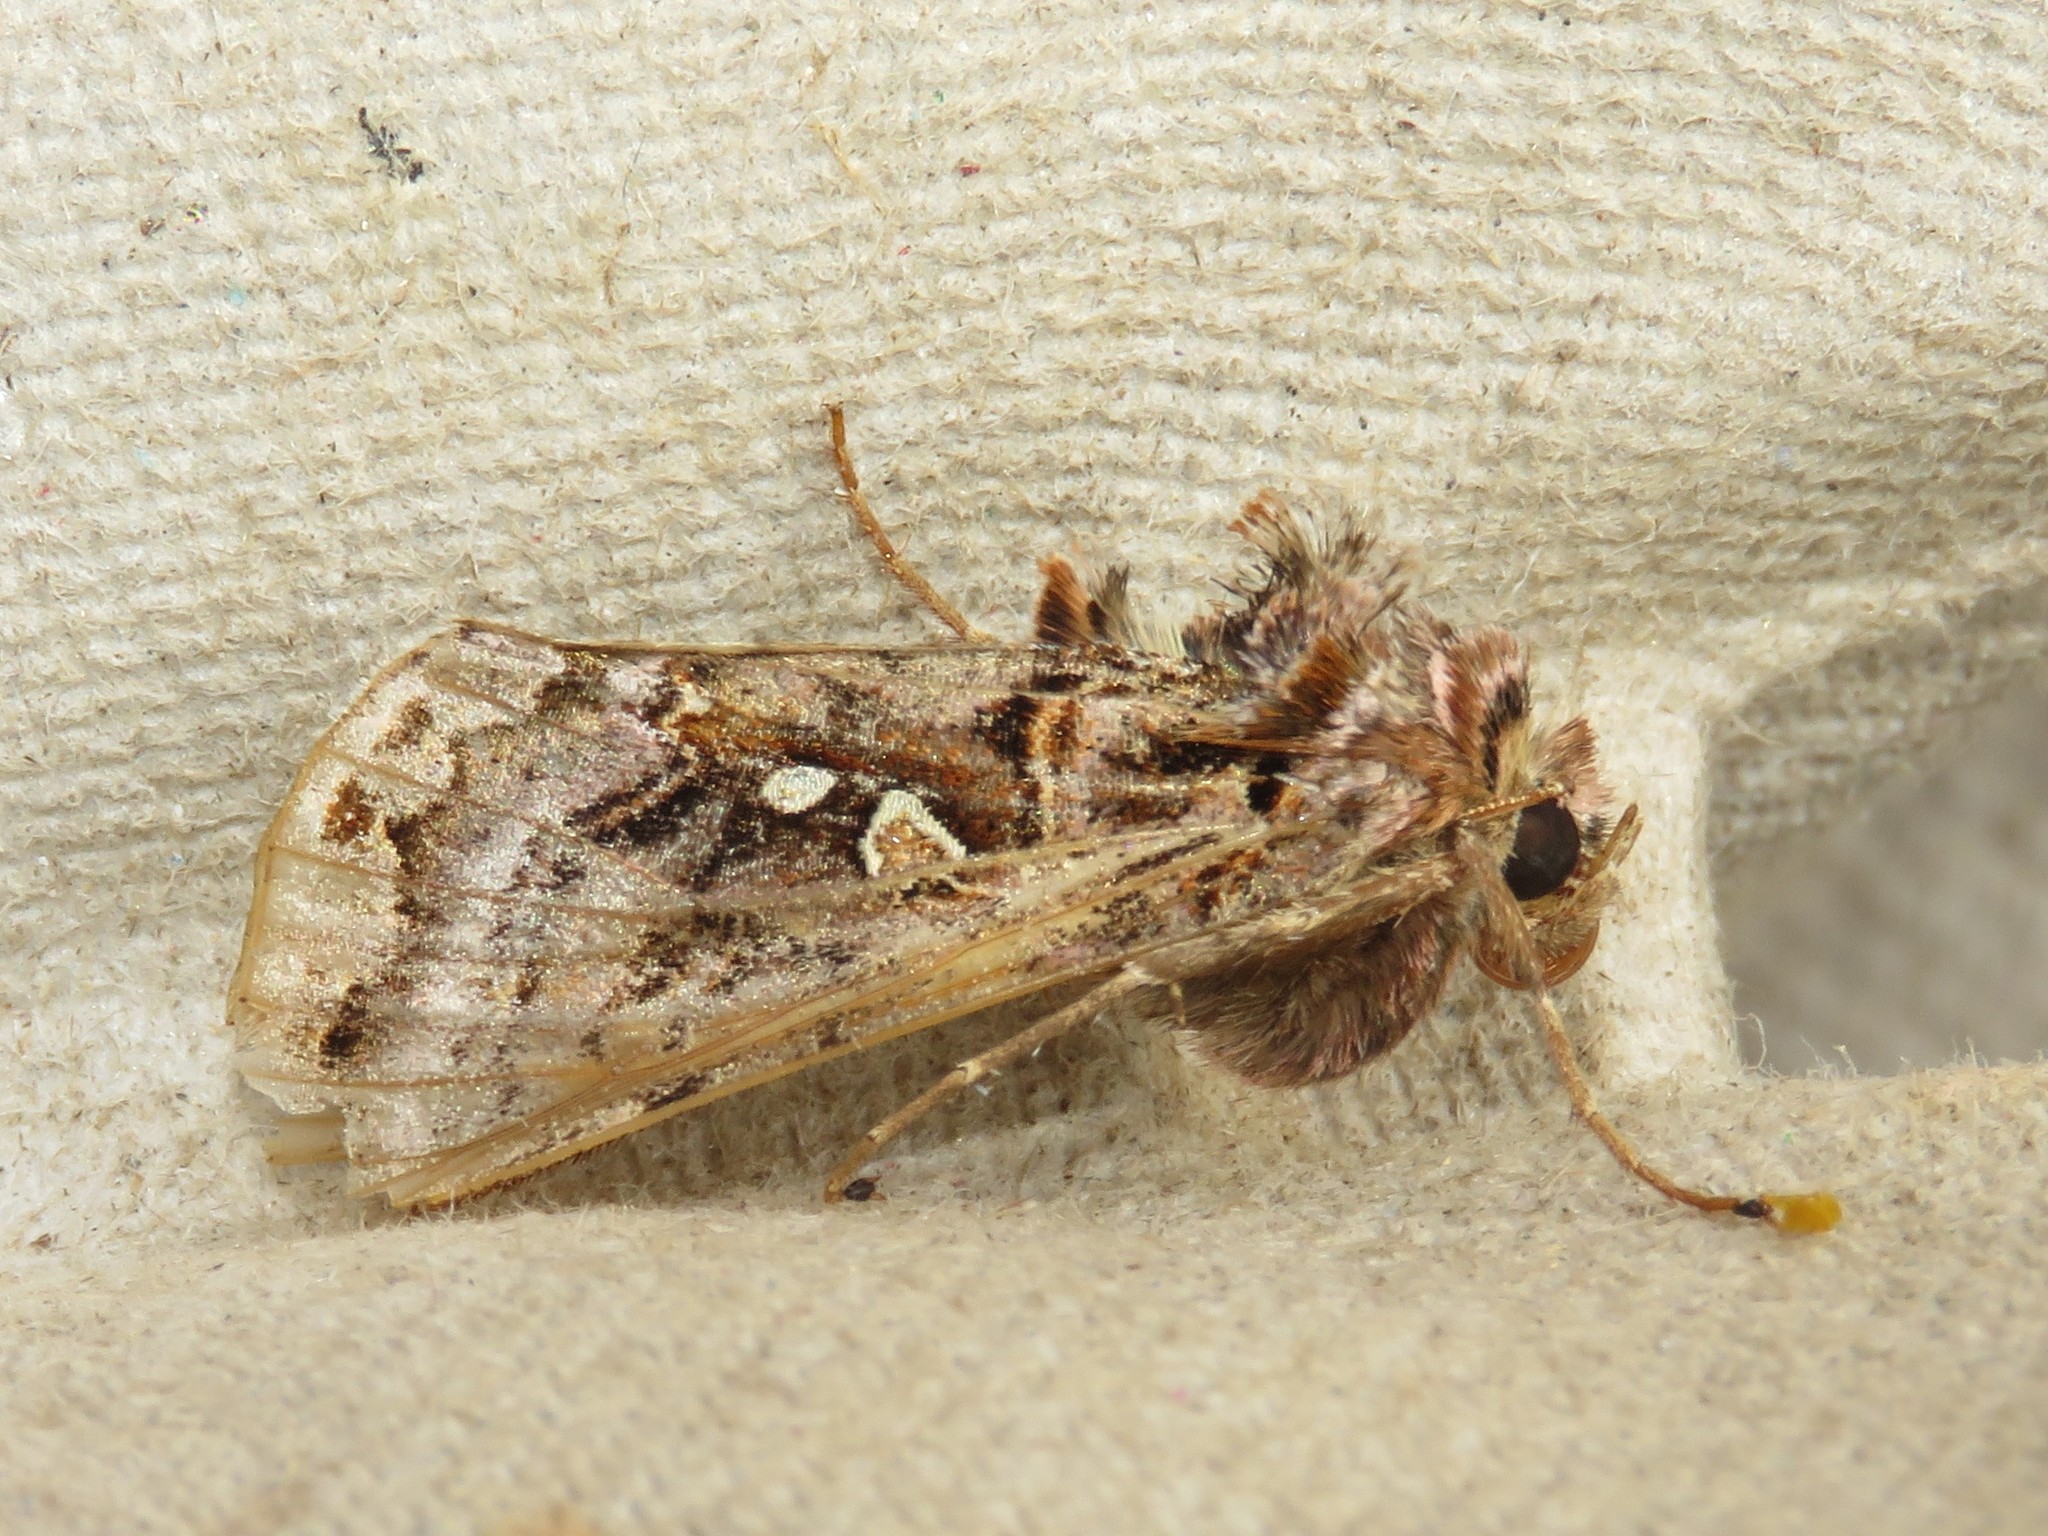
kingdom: Animalia
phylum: Arthropoda
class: Insecta
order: Lepidoptera
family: Noctuidae
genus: Autographa
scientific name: Autographa mappa
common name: Wavy chestnut y moth
